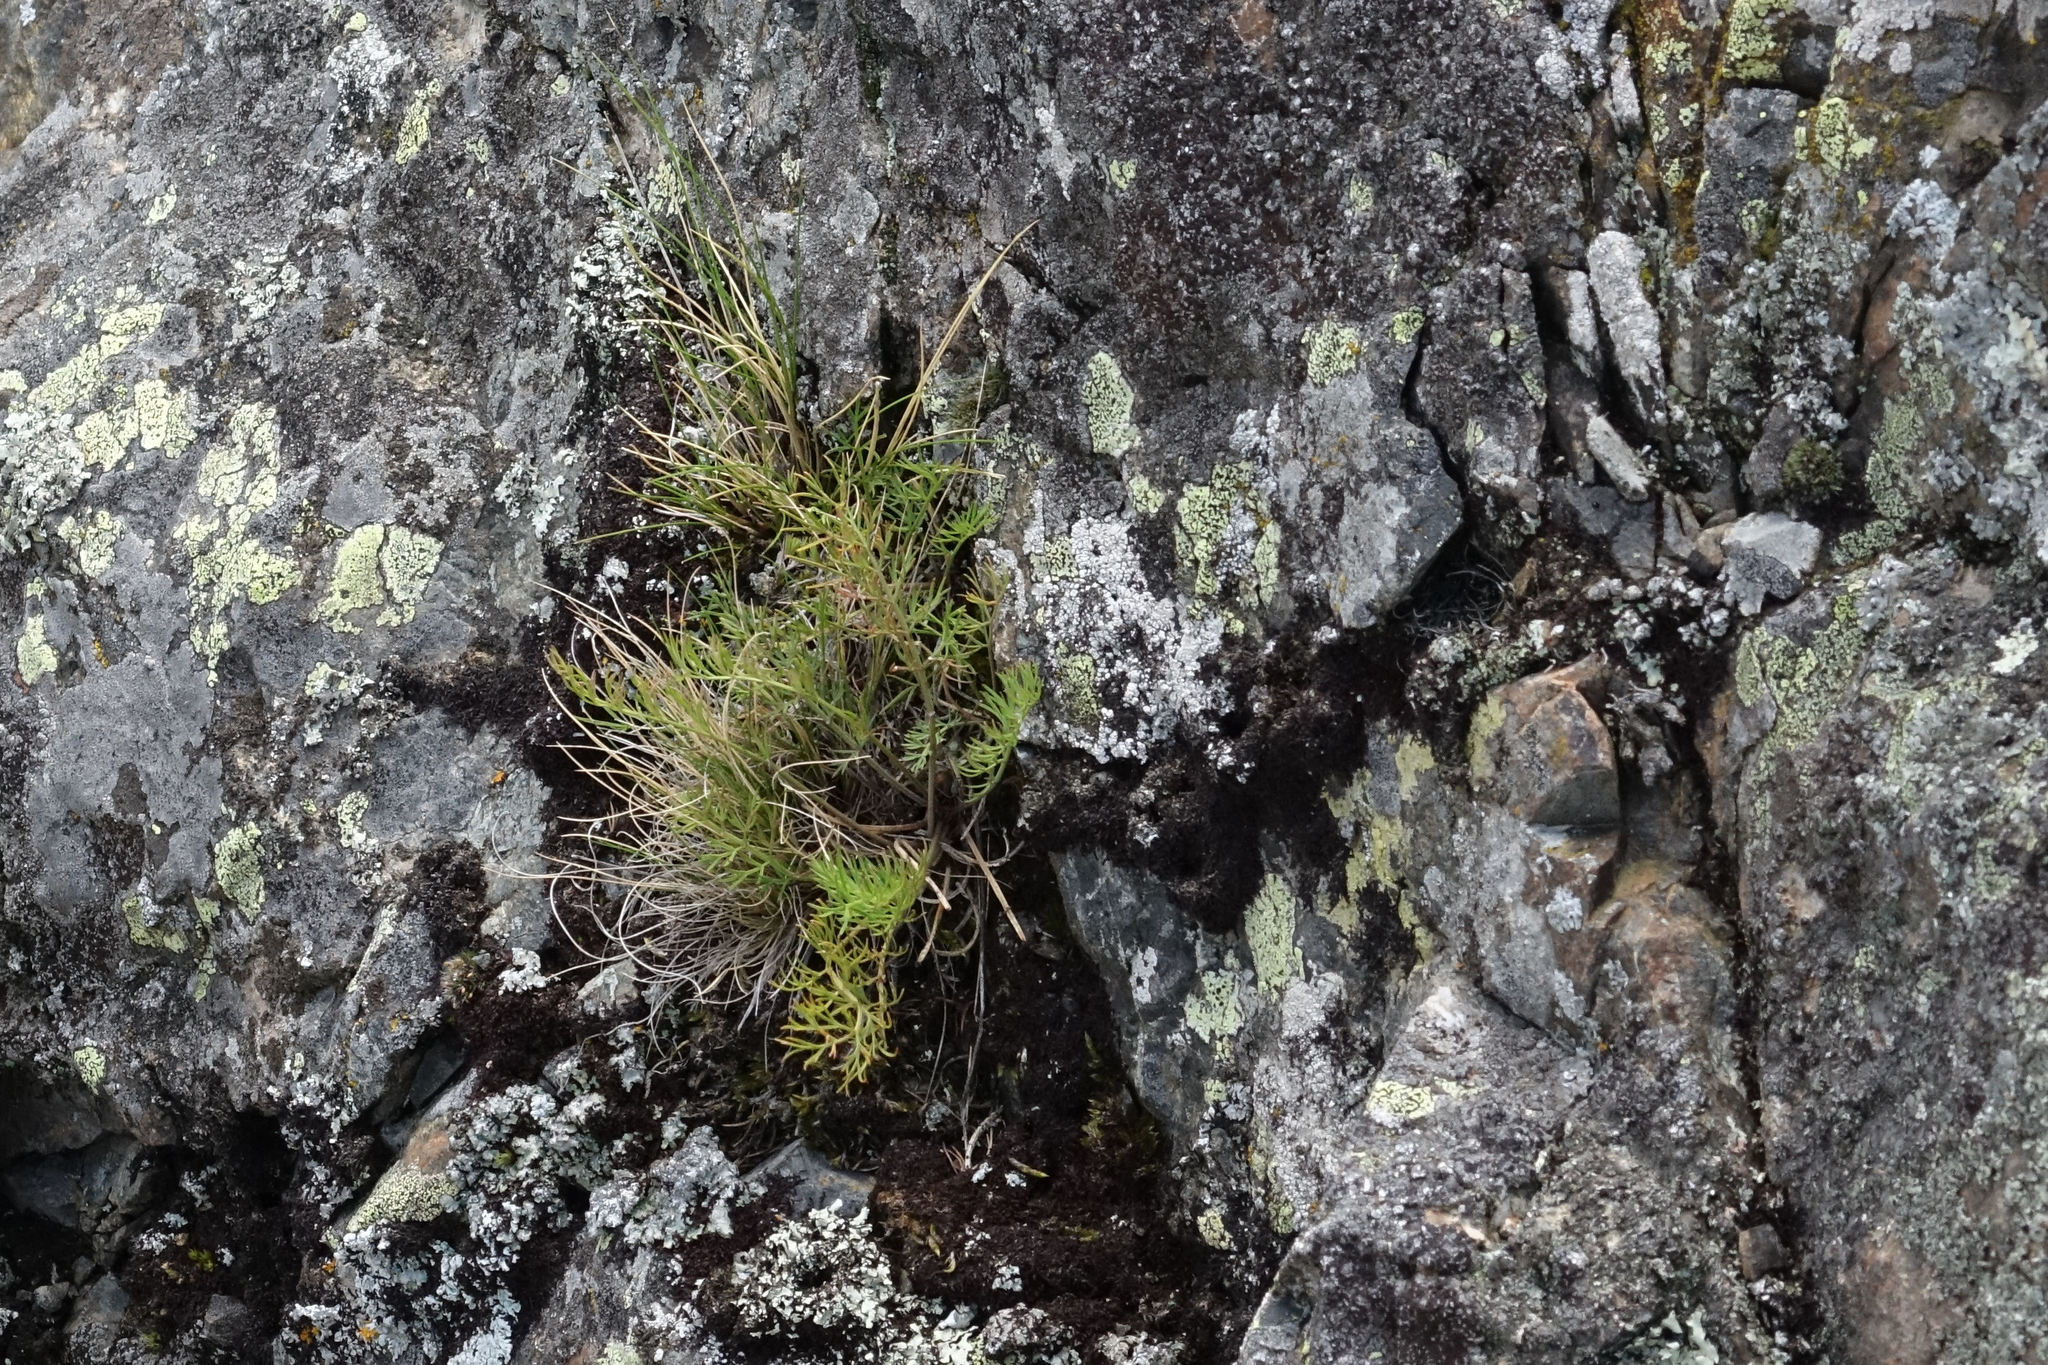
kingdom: Plantae
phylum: Tracheophyta
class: Magnoliopsida
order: Apiales
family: Apiaceae
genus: Anisotome
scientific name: Anisotome brevistylis
